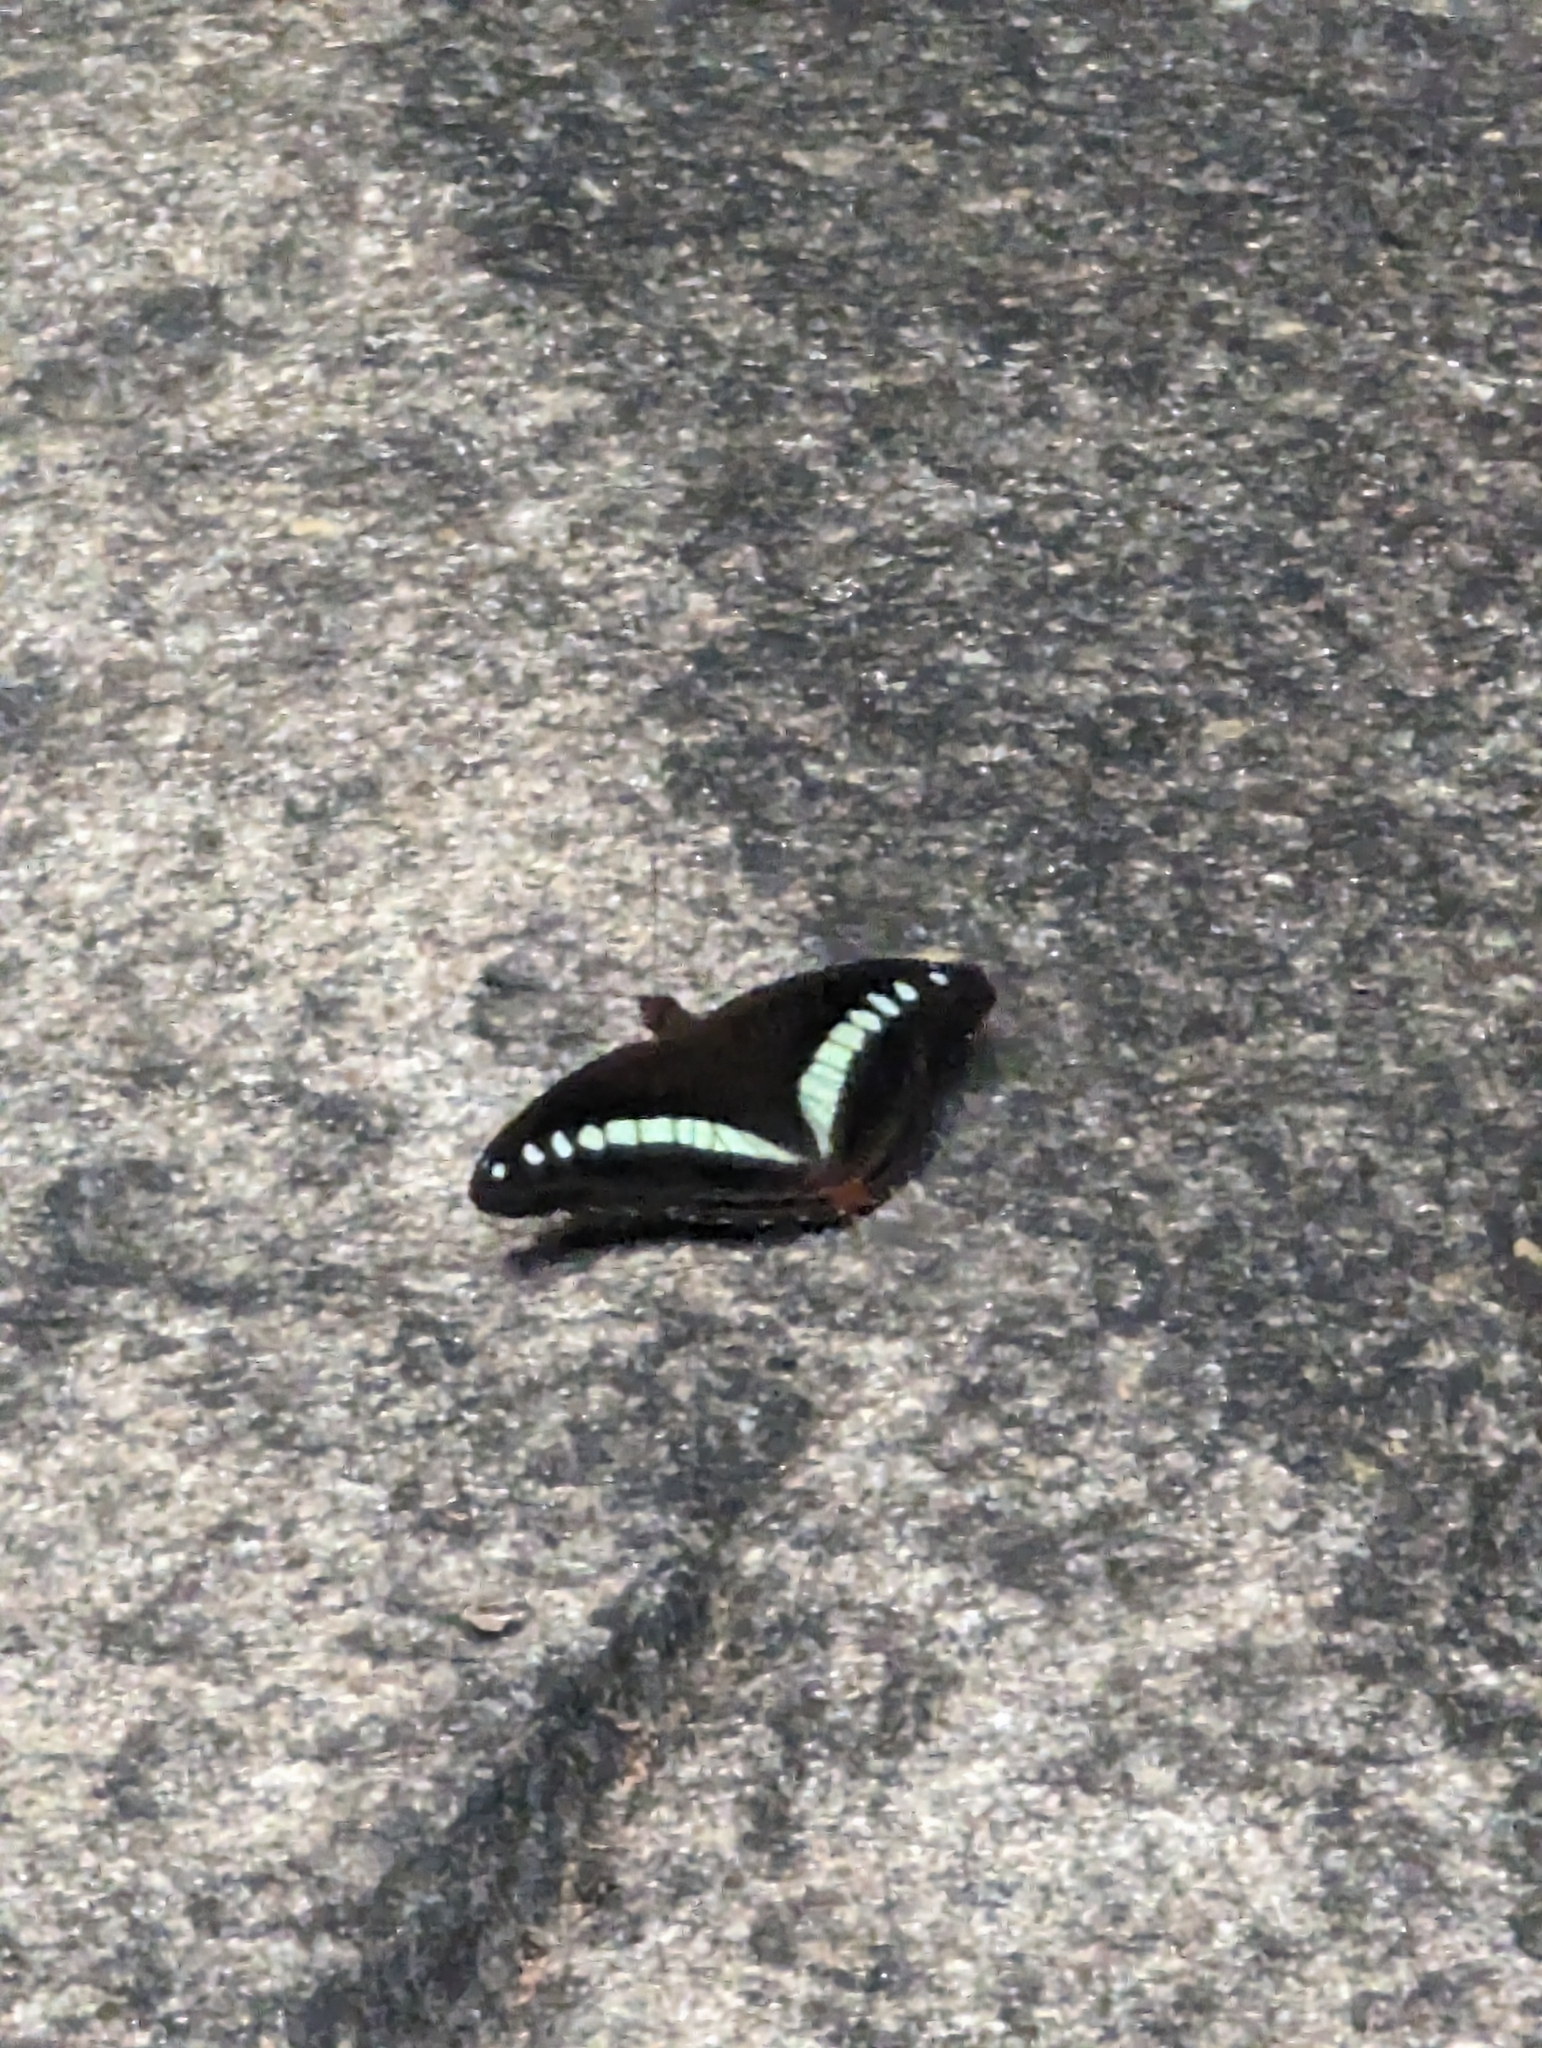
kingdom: Animalia
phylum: Arthropoda
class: Insecta
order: Lepidoptera
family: Nymphalidae
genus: Limenitis
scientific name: Limenitis Sumalia daraxa
